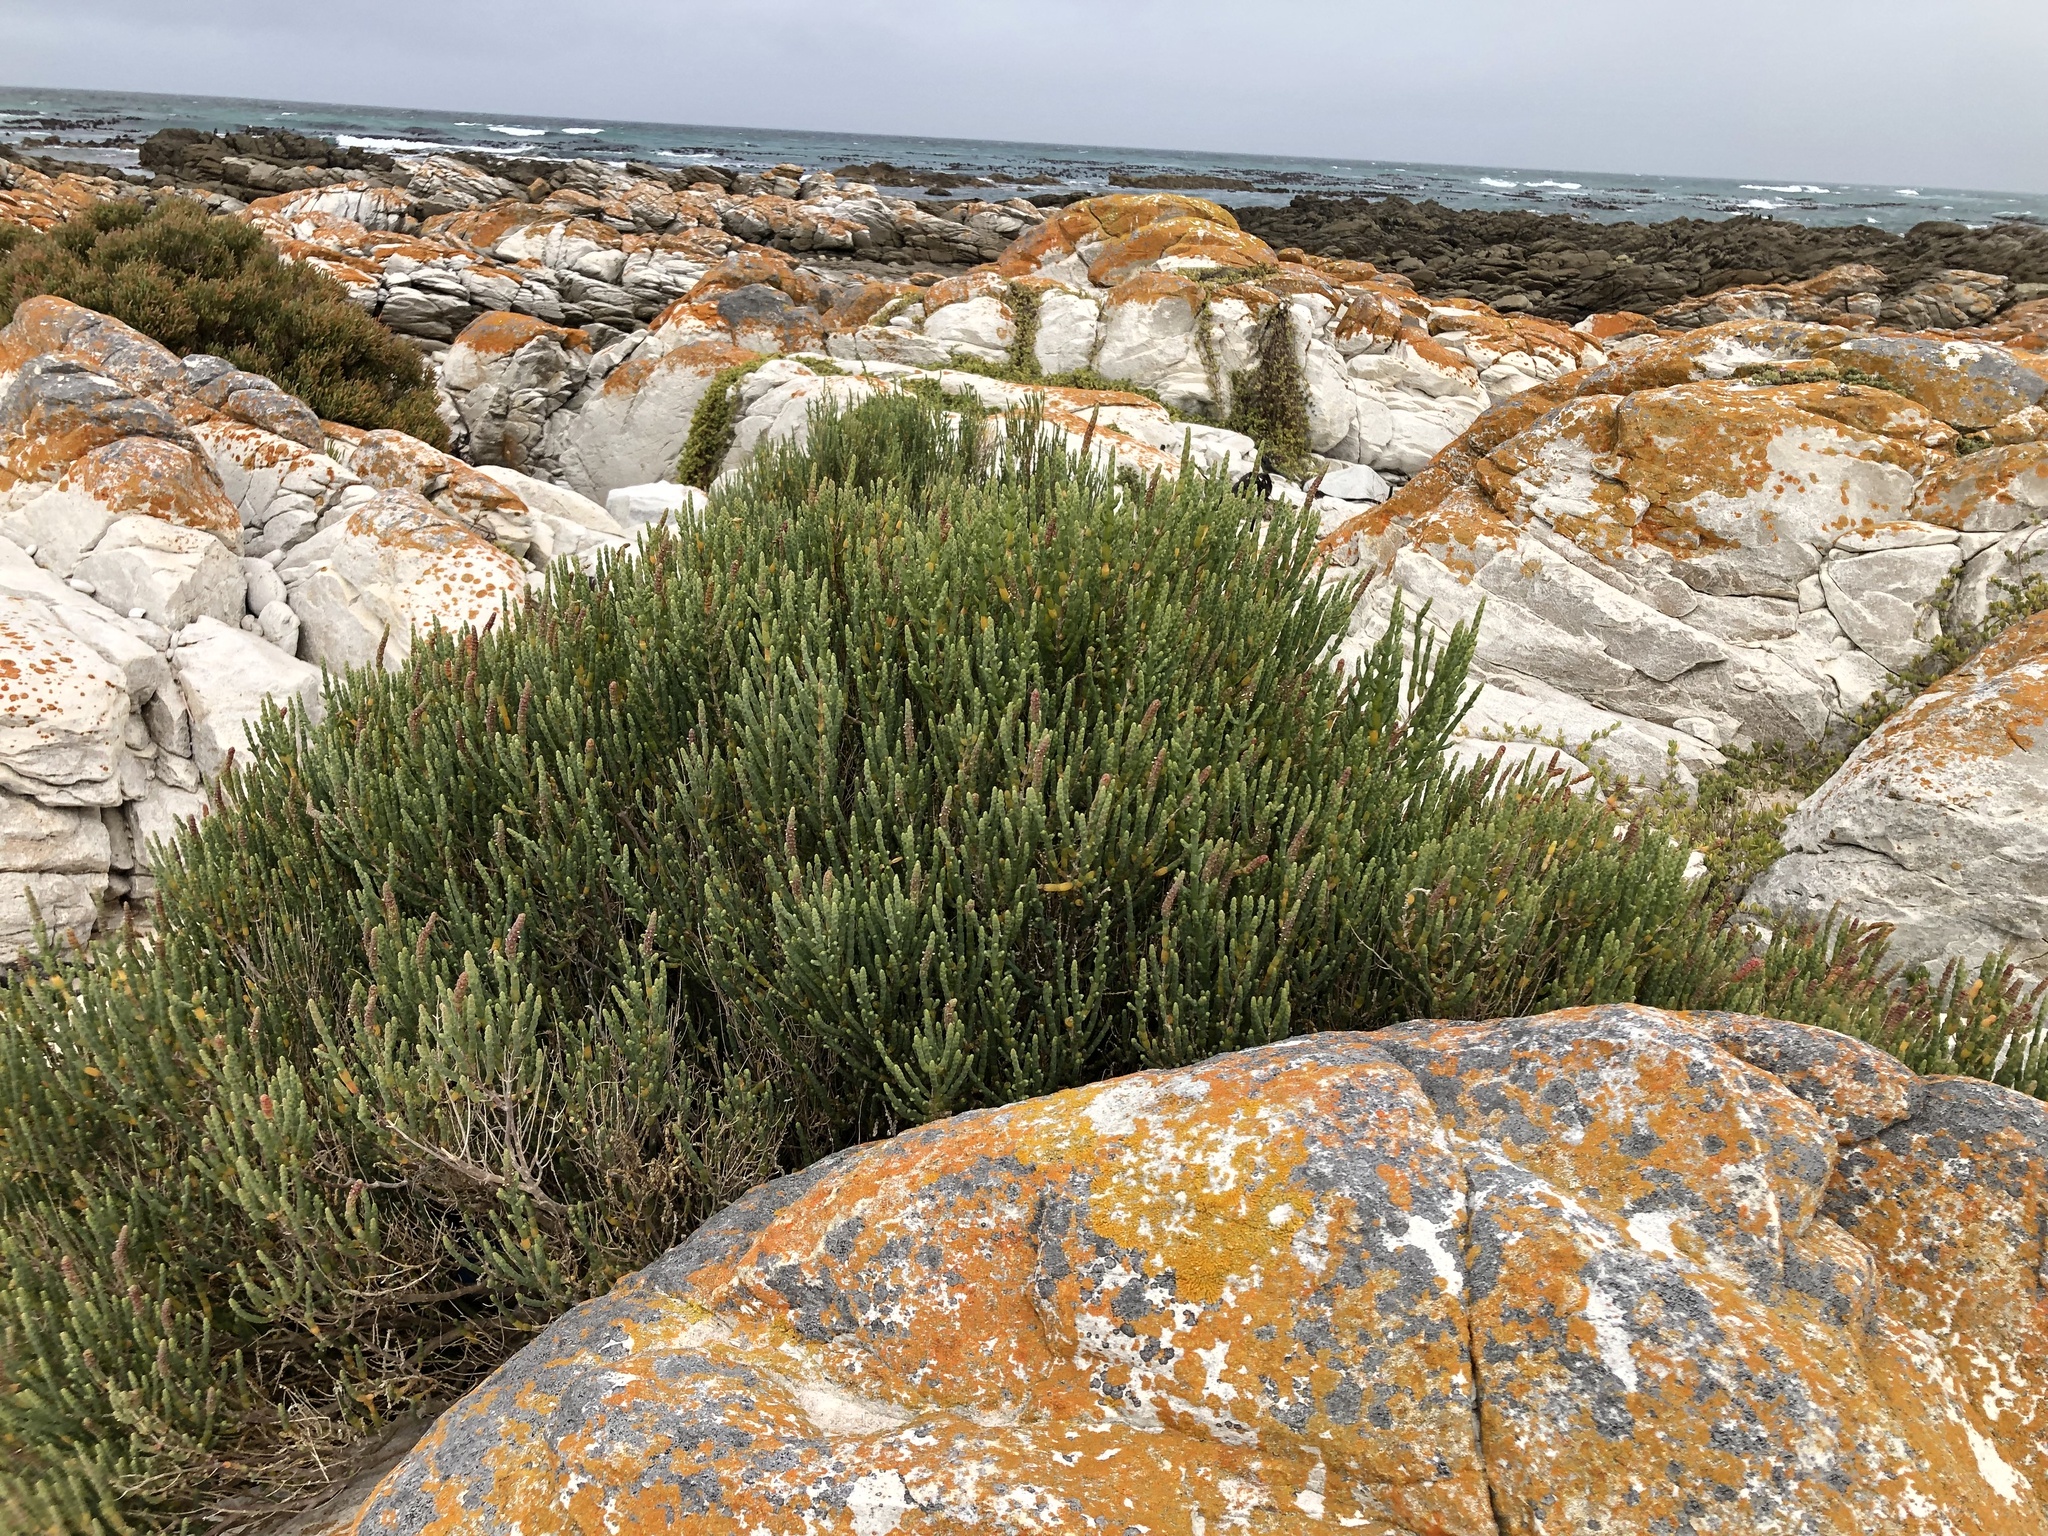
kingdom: Plantae
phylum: Tracheophyta
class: Magnoliopsida
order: Caryophyllales
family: Amaranthaceae
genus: Salicornia
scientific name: Salicornia littorea
